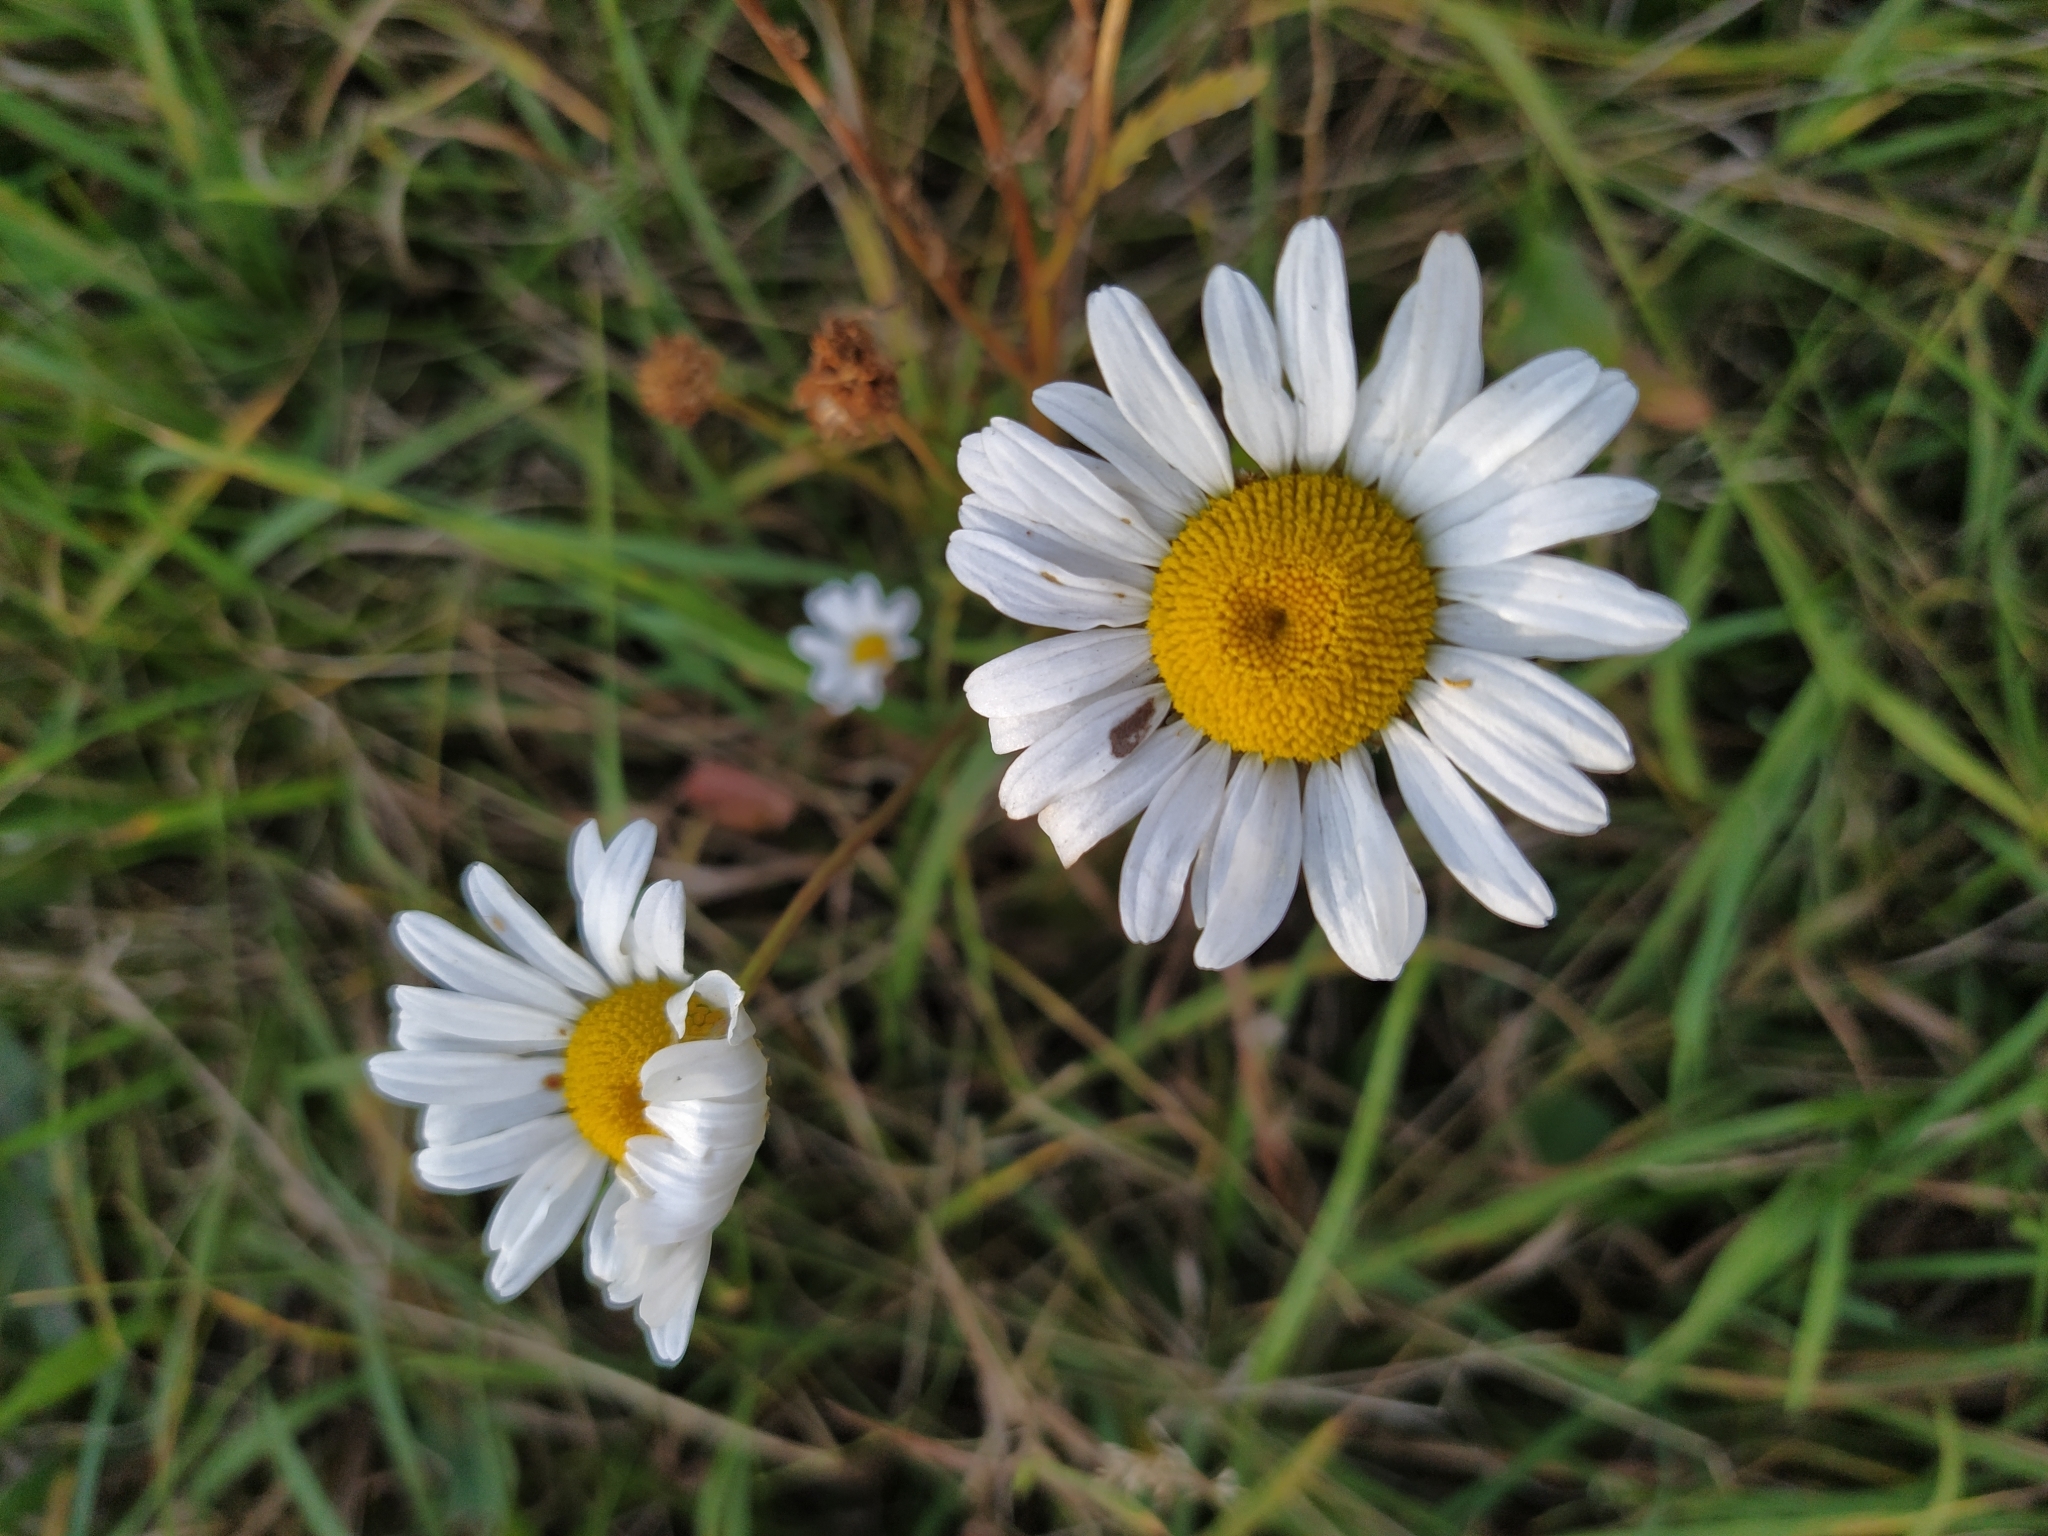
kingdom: Plantae
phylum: Tracheophyta
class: Magnoliopsida
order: Asterales
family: Asteraceae
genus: Leucanthemum
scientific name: Leucanthemum vulgare
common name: Oxeye daisy
